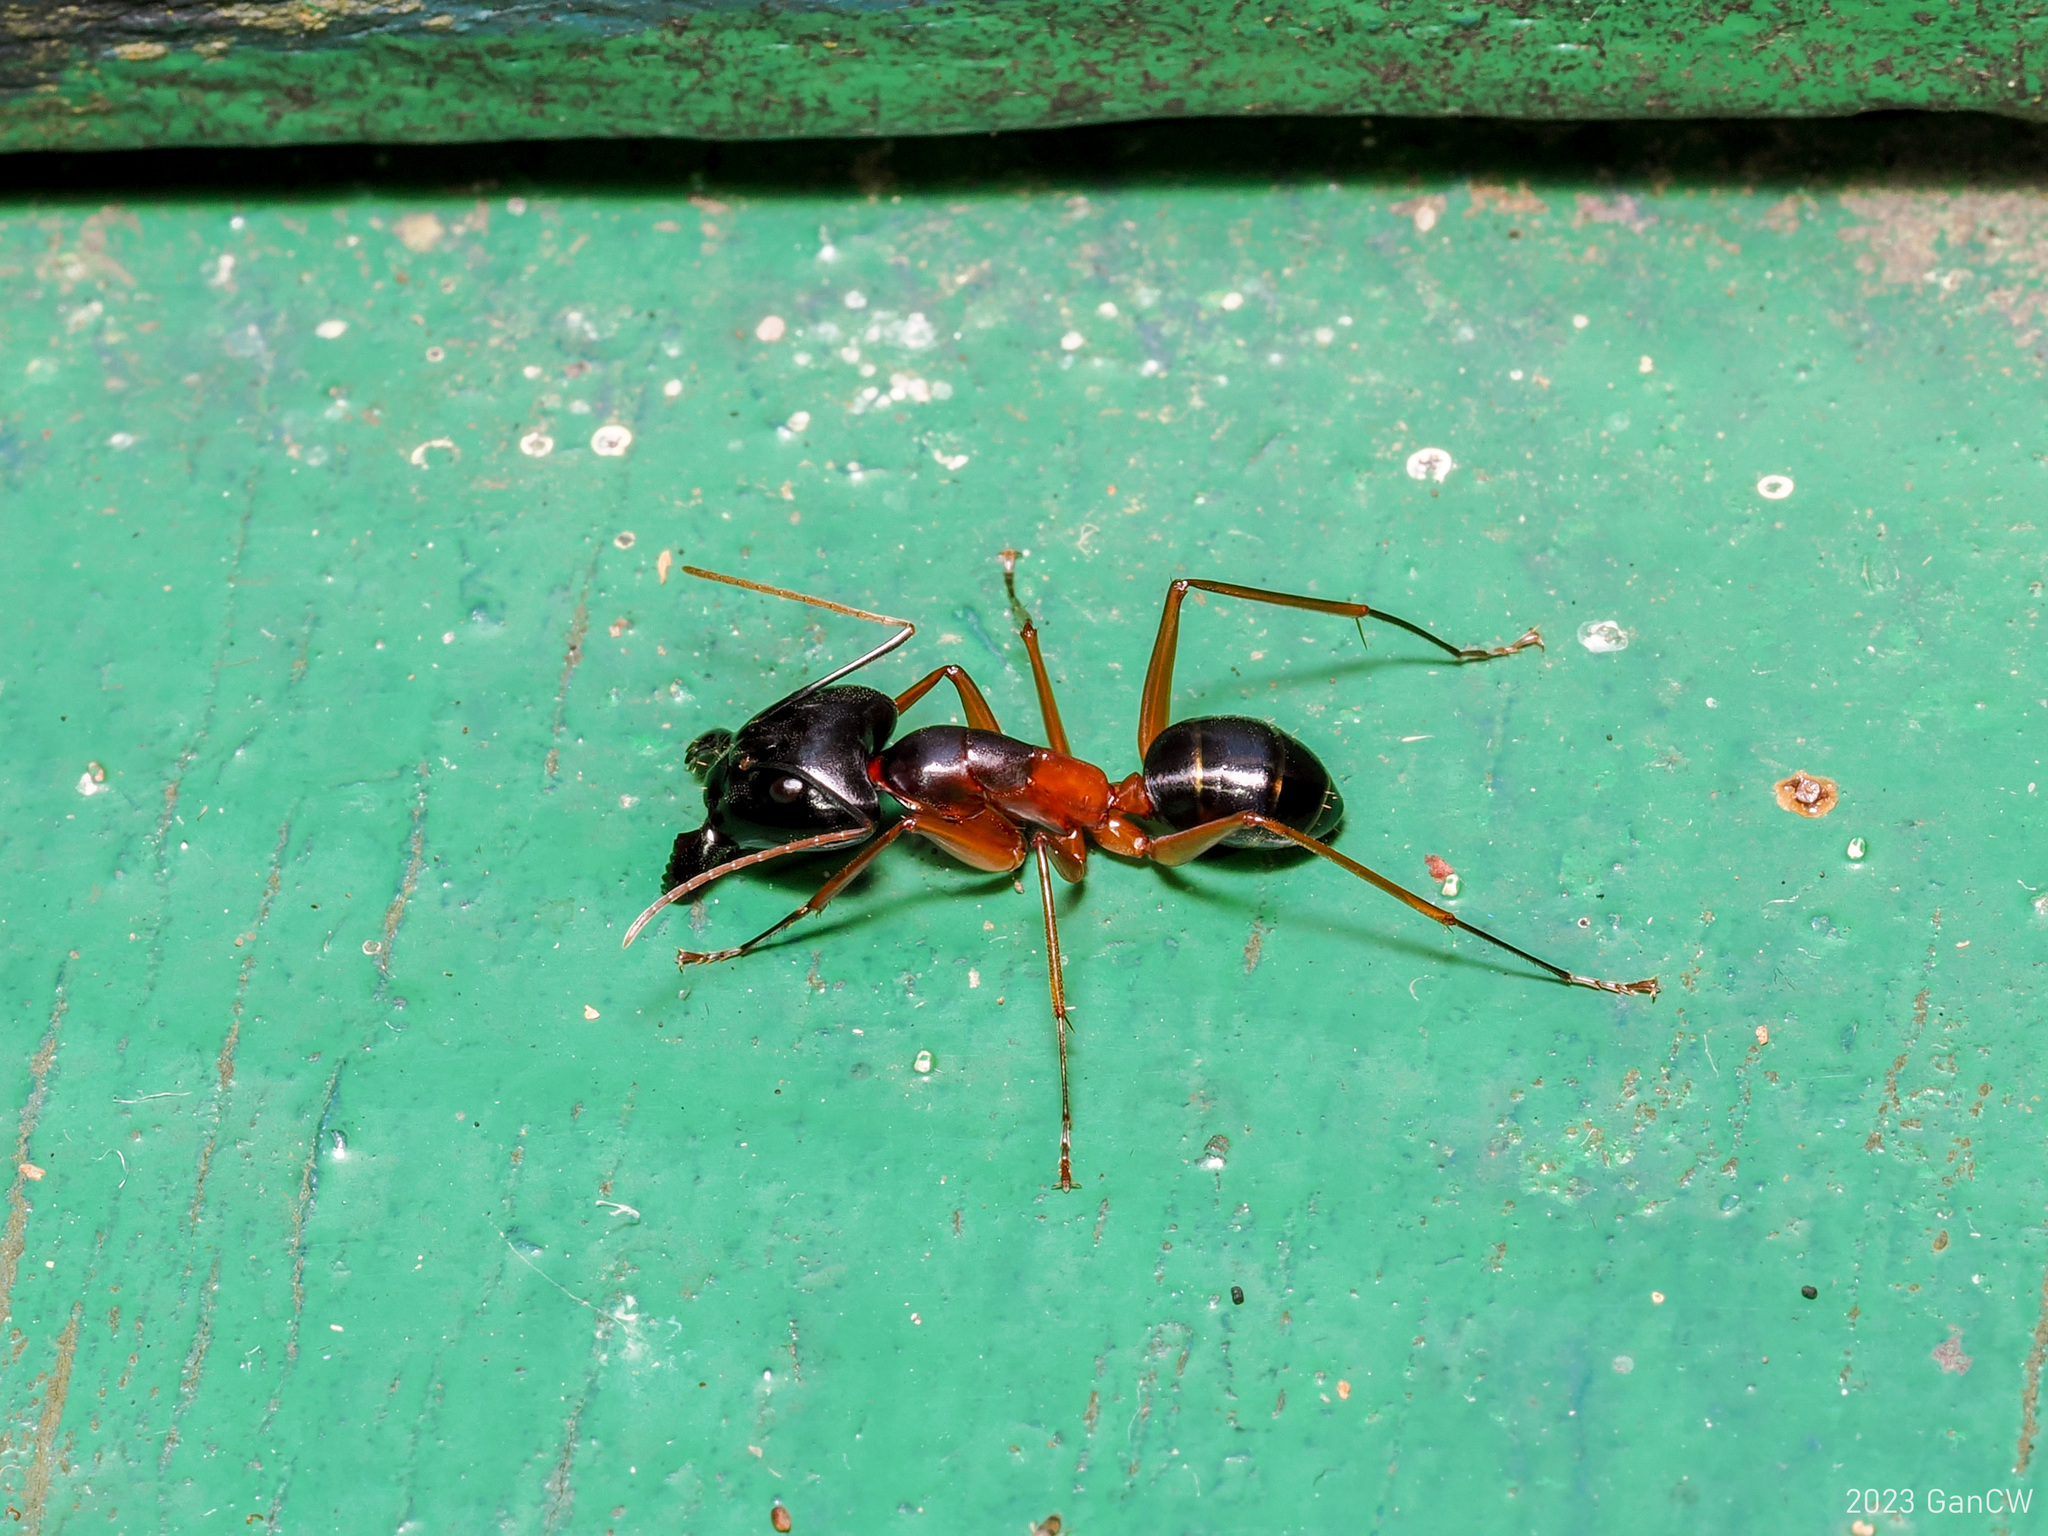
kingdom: Animalia
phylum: Arthropoda
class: Insecta
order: Hymenoptera
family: Formicidae
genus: Camponotus
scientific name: Camponotus festinus
